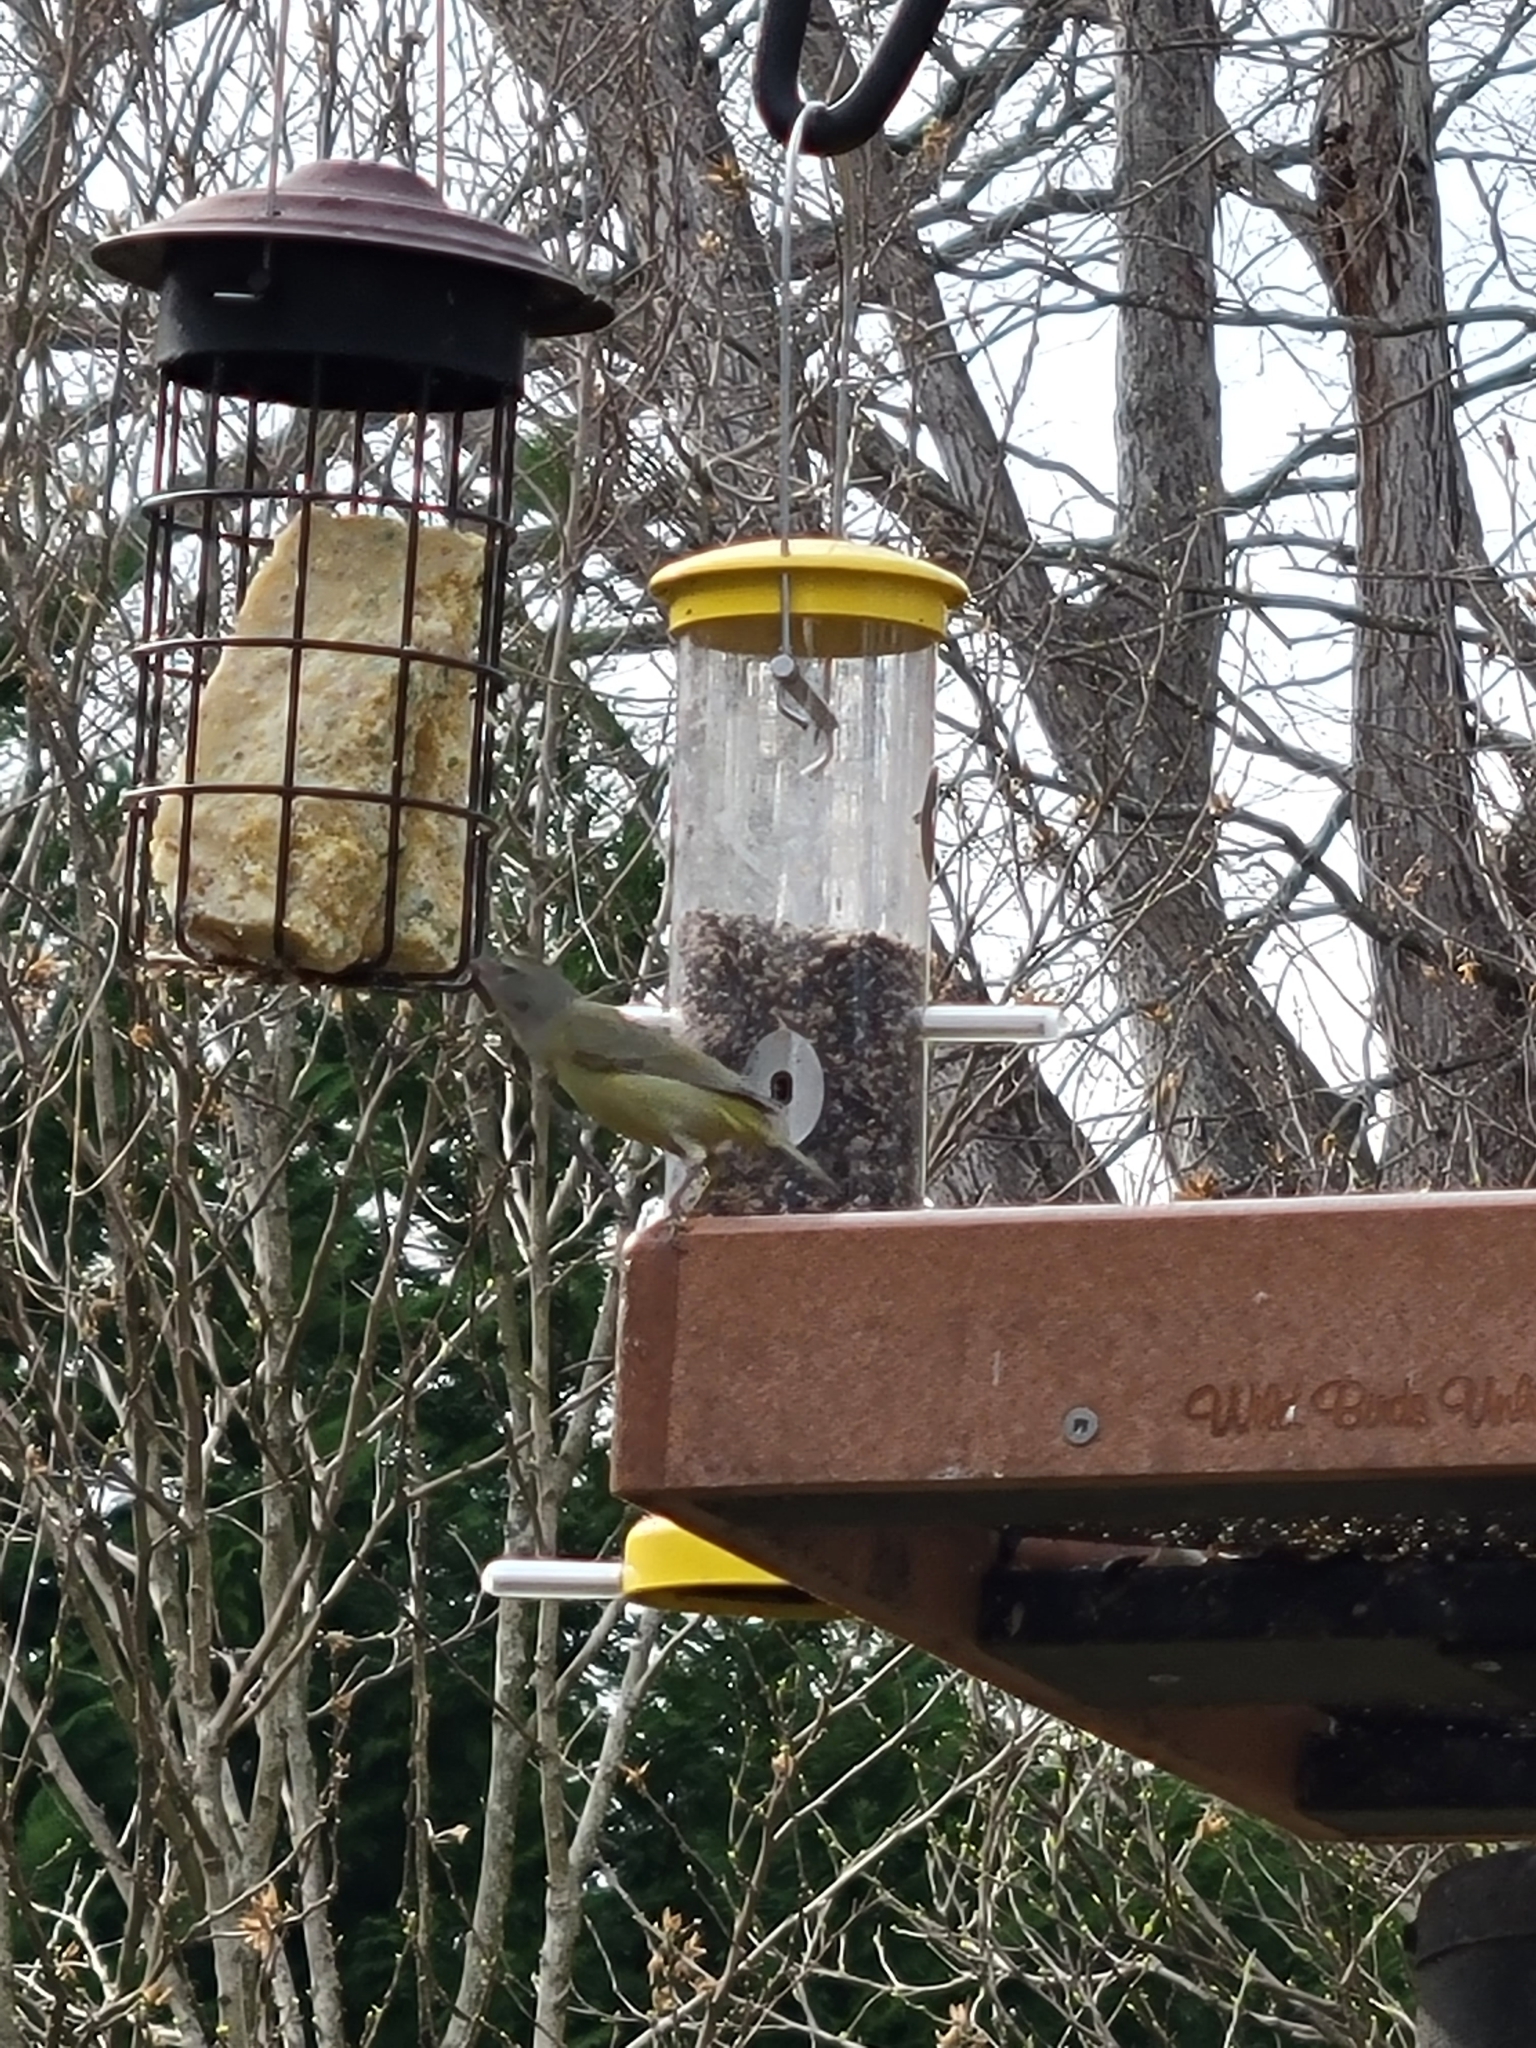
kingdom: Animalia
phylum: Chordata
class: Aves
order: Passeriformes
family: Parulidae
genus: Leiothlypis
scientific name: Leiothlypis celata
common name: Orange-crowned warbler
